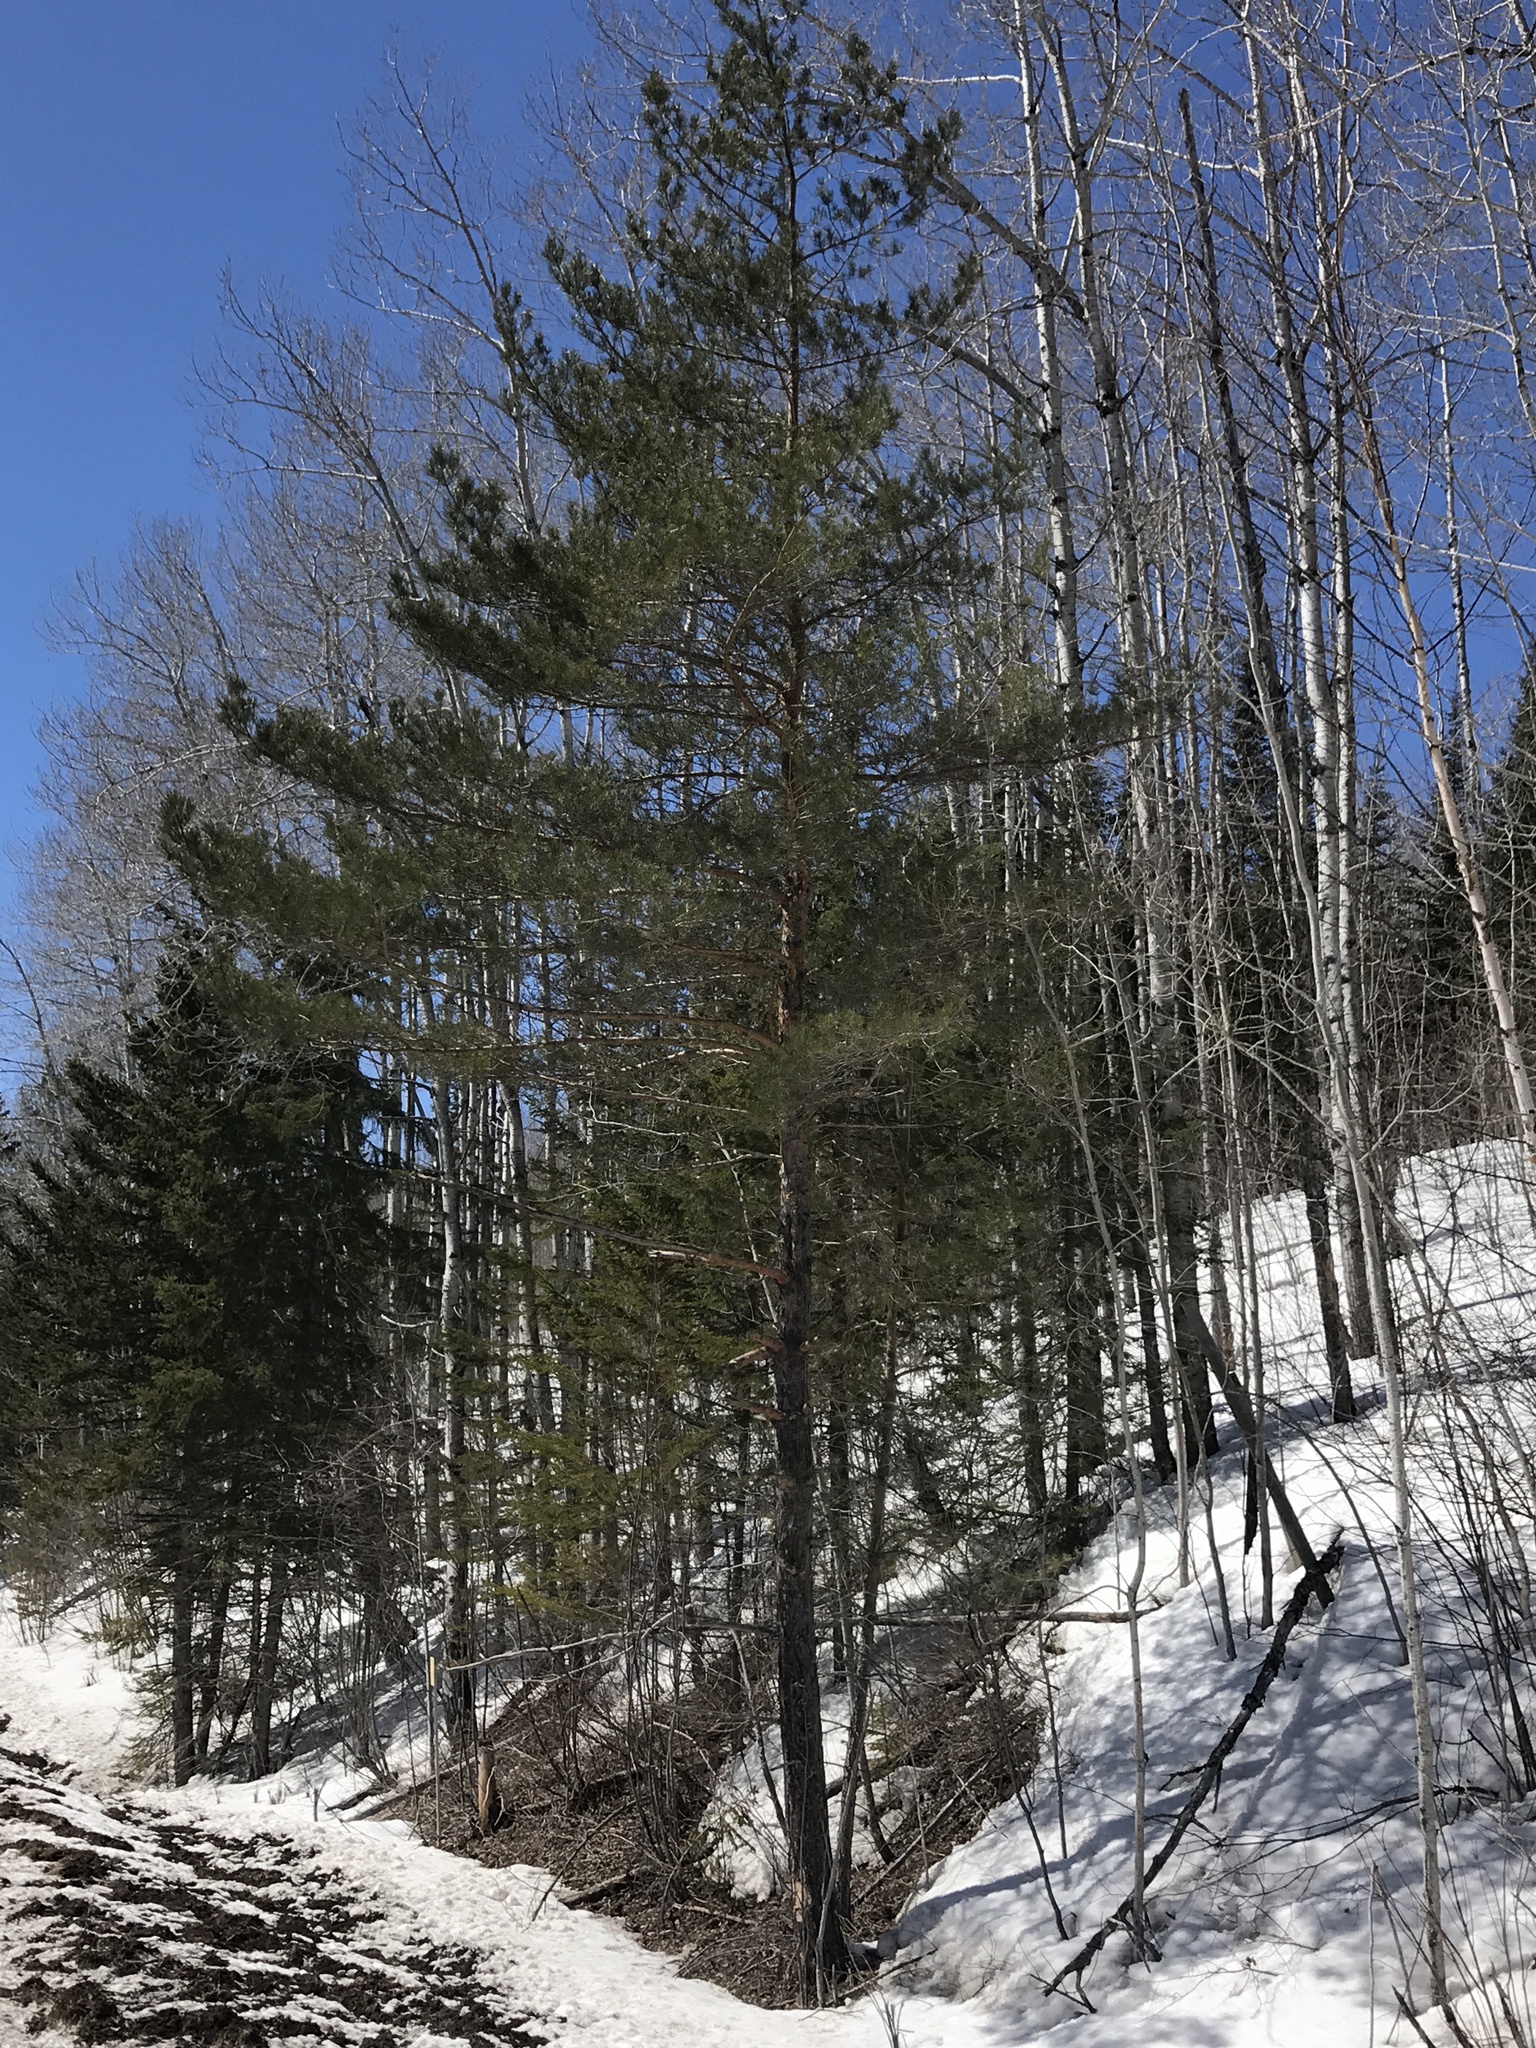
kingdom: Plantae
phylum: Tracheophyta
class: Pinopsida
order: Pinales
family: Pinaceae
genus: Pinus
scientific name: Pinus sylvestris
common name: Scots pine
